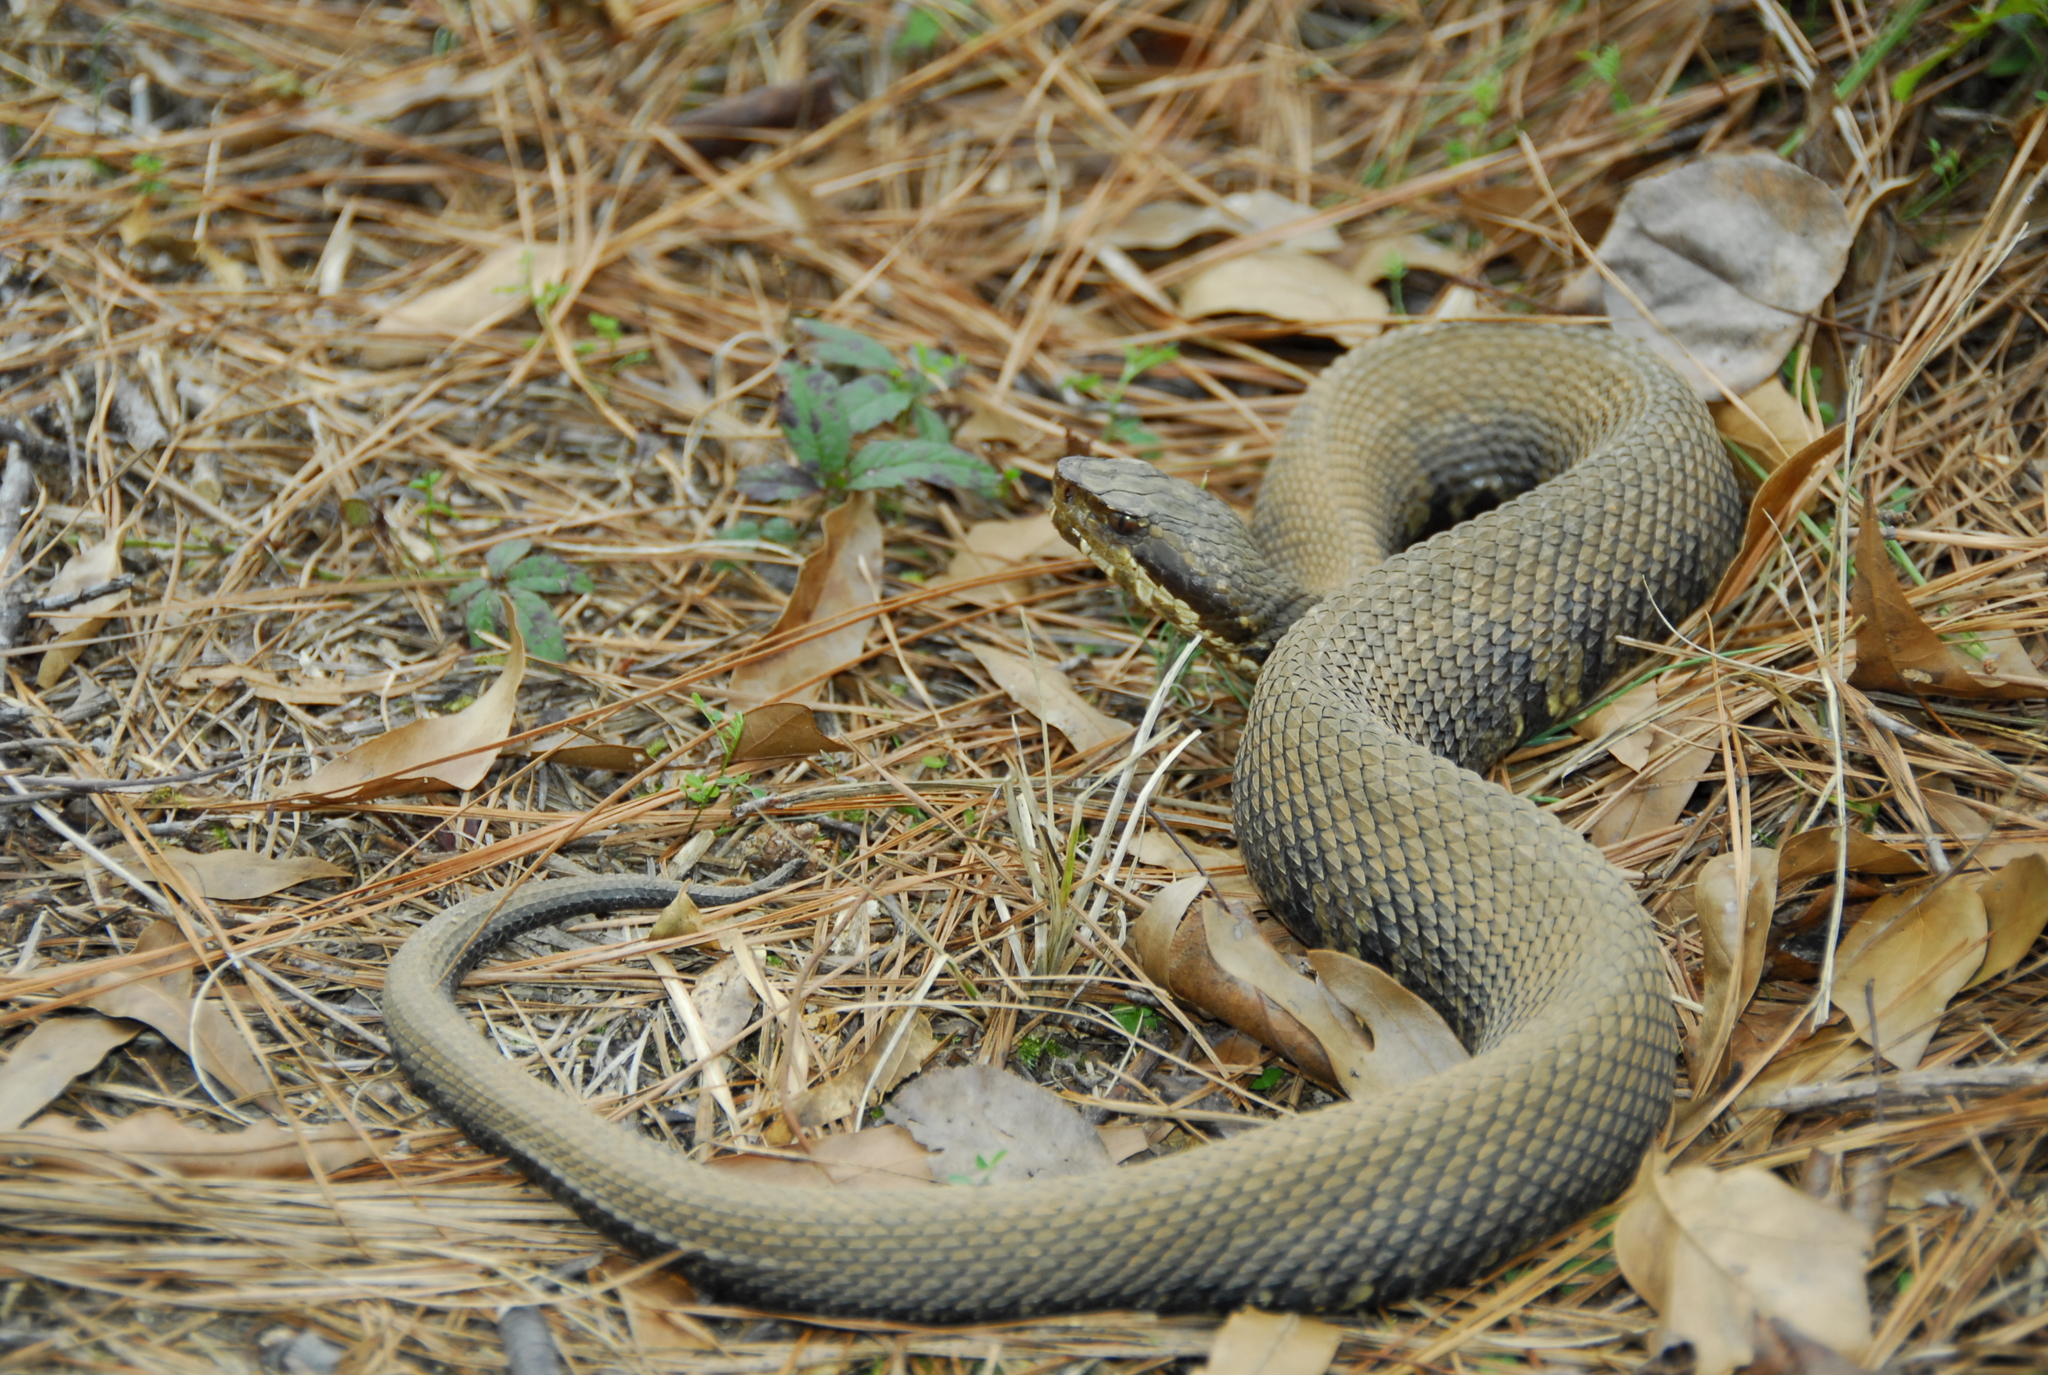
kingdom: Animalia
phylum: Chordata
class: Squamata
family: Viperidae
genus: Agkistrodon
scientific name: Agkistrodon piscivorus
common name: Cottonmouth
